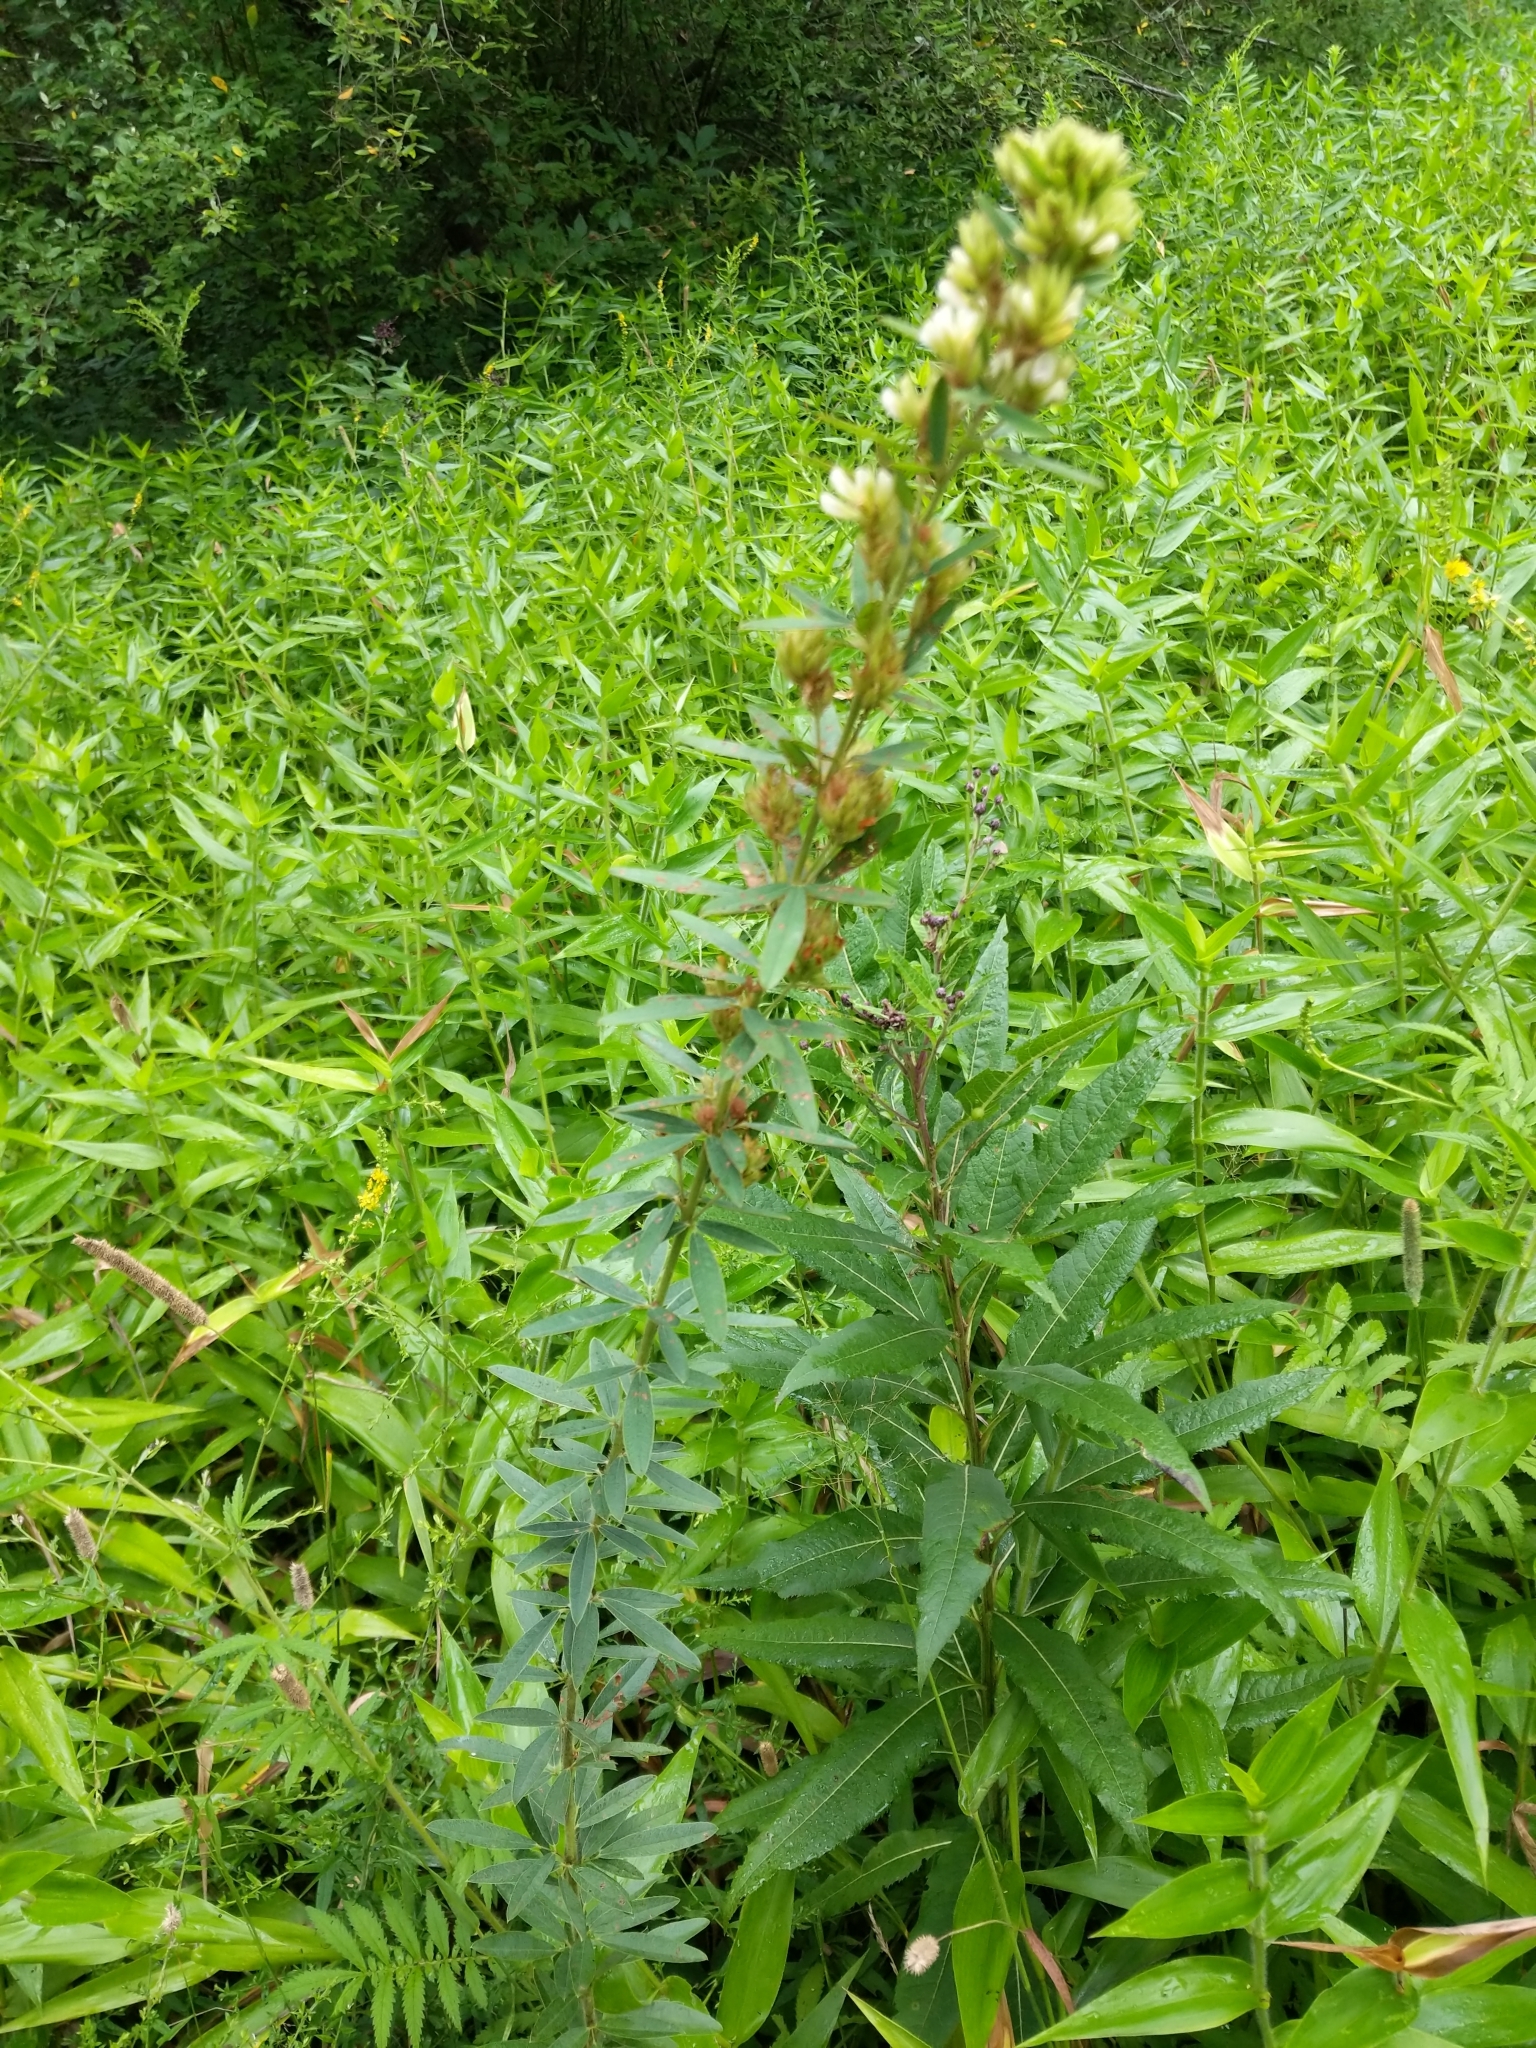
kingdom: Plantae
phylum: Tracheophyta
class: Magnoliopsida
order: Fabales
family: Fabaceae
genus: Lespedeza
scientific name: Lespedeza capitata
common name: Dusty clover
